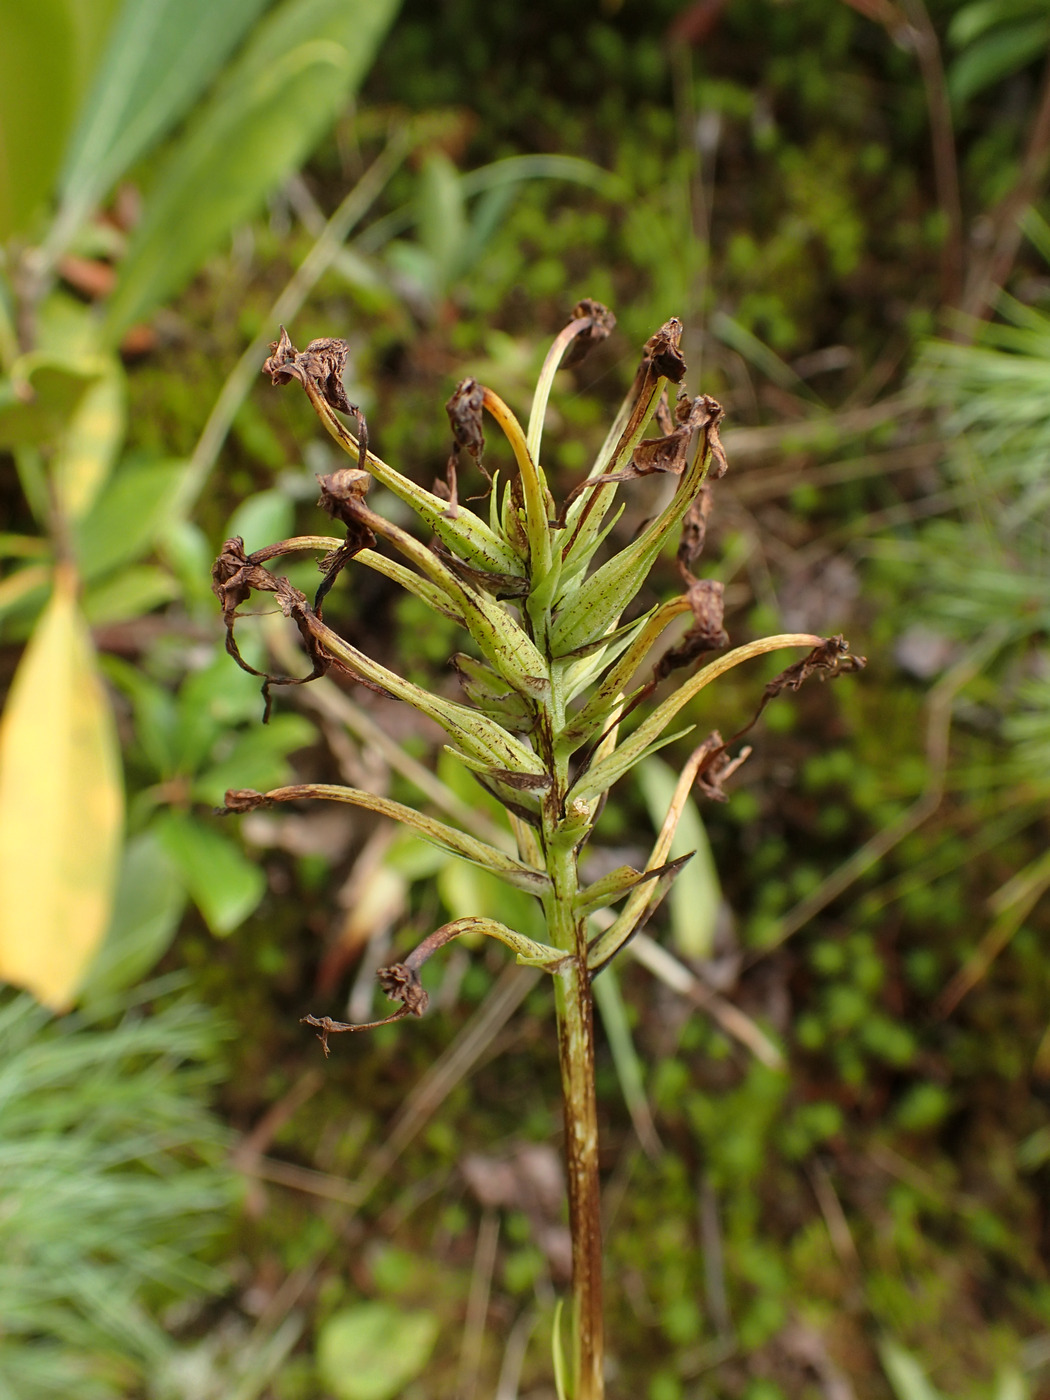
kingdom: Plantae
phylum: Tracheophyta
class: Liliopsida
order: Asparagales
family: Orchidaceae
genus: Platanthera
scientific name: Platanthera ciliaris
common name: Yellow fringed orchid
